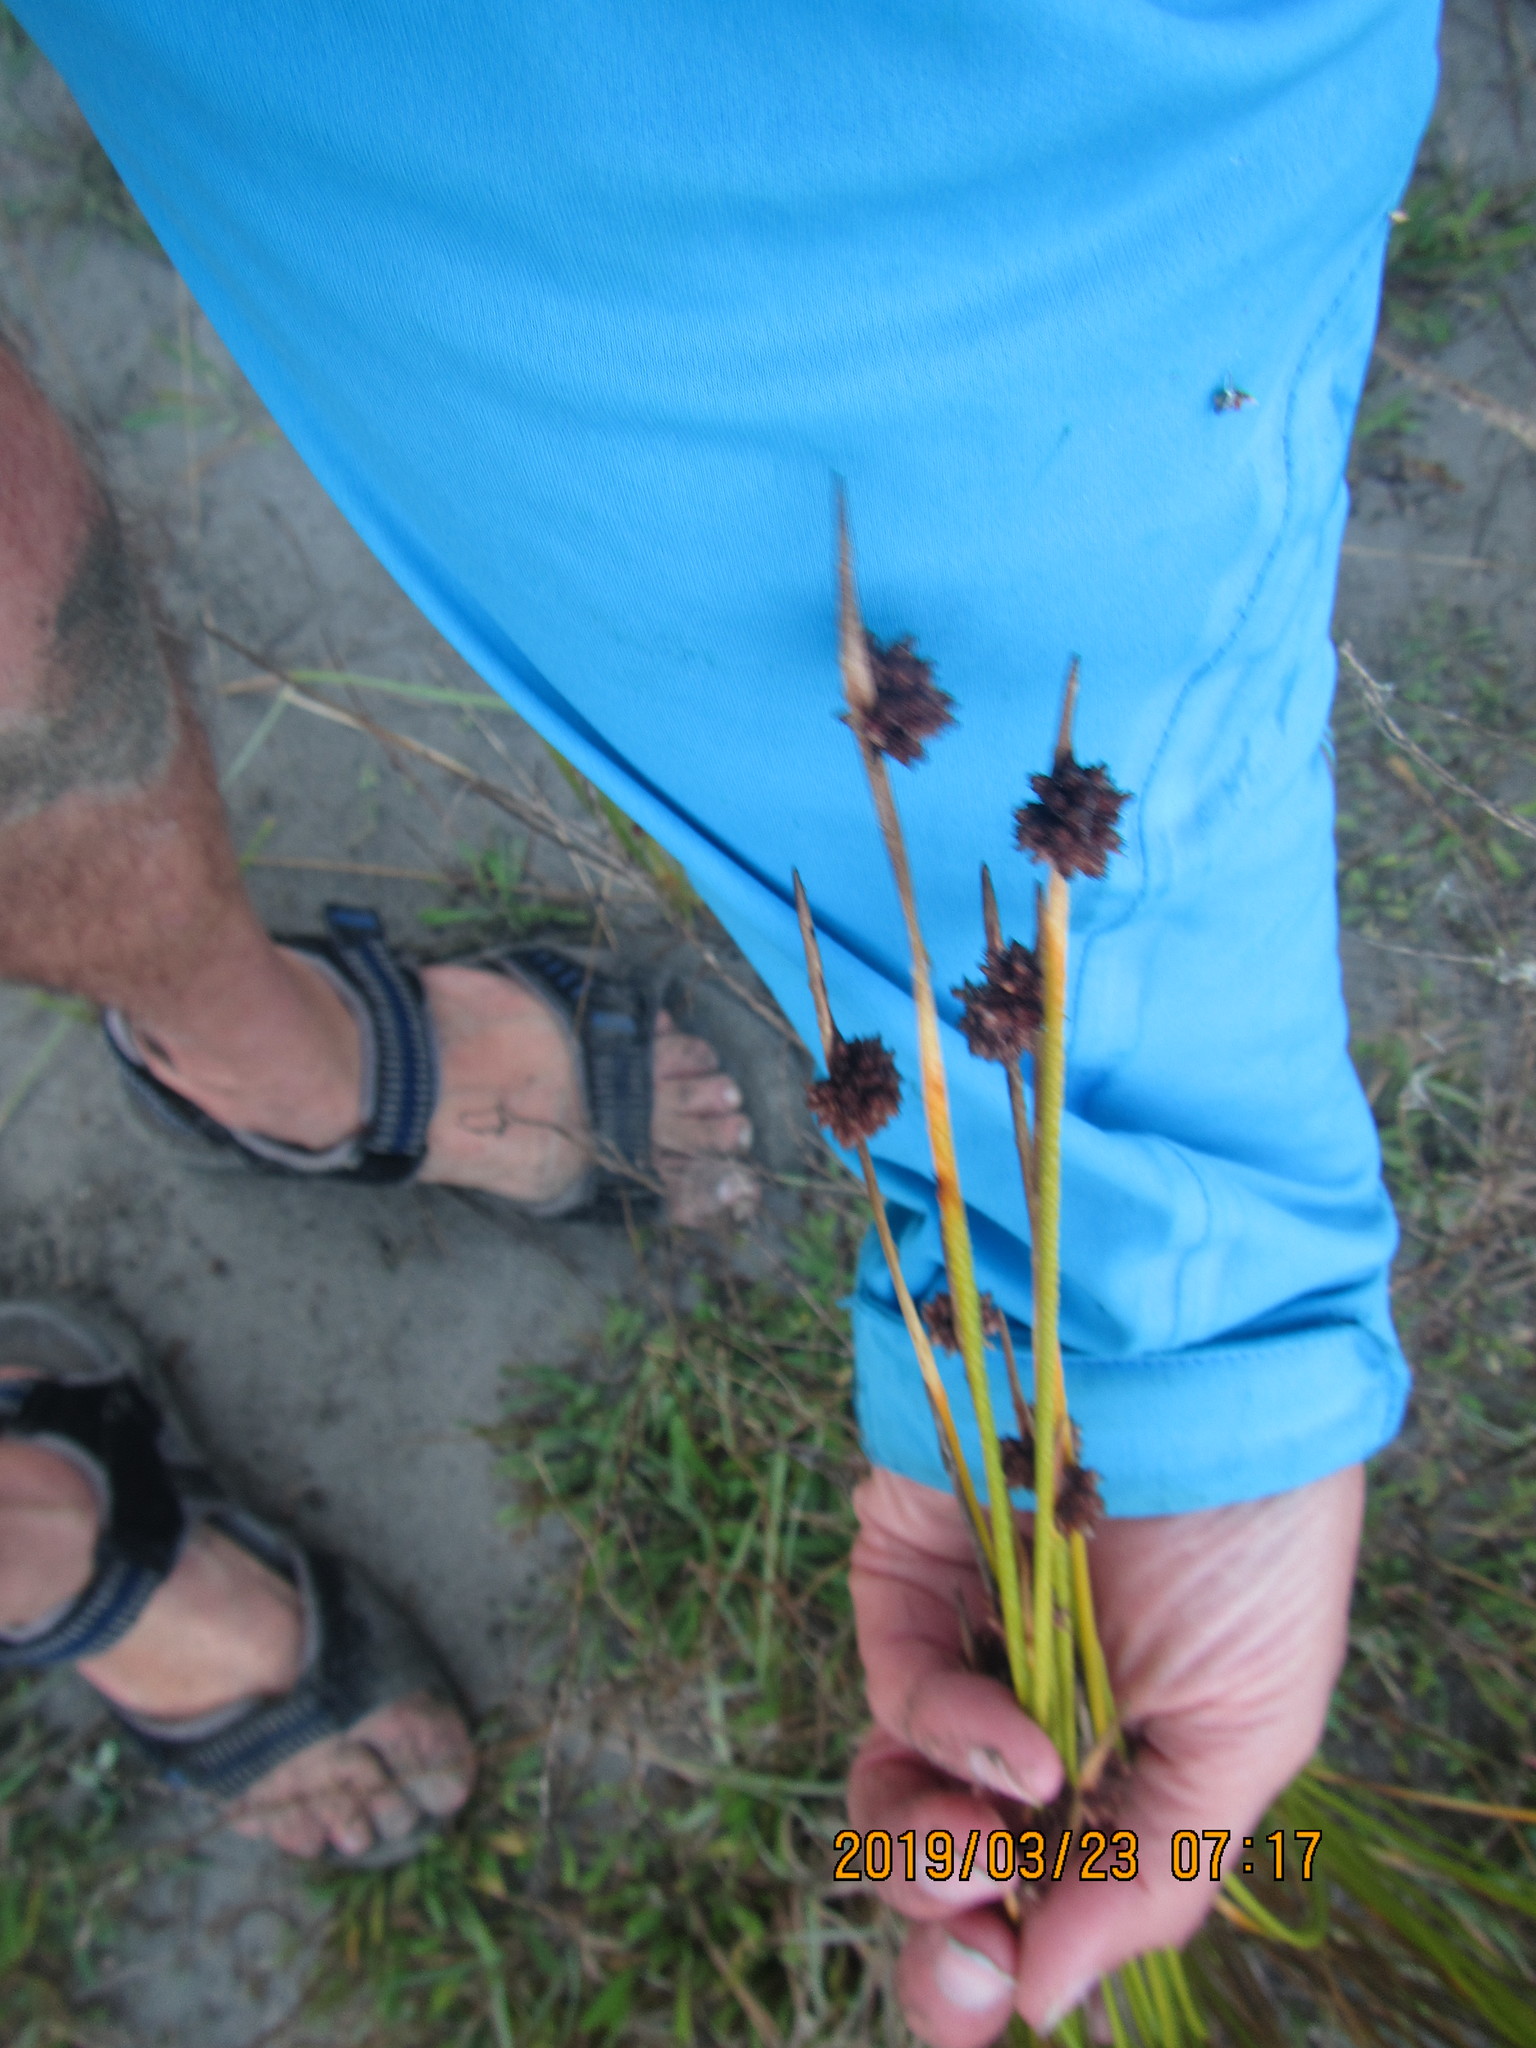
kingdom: Plantae
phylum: Tracheophyta
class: Liliopsida
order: Poales
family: Cyperaceae
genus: Ficinia
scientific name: Ficinia nodosa
